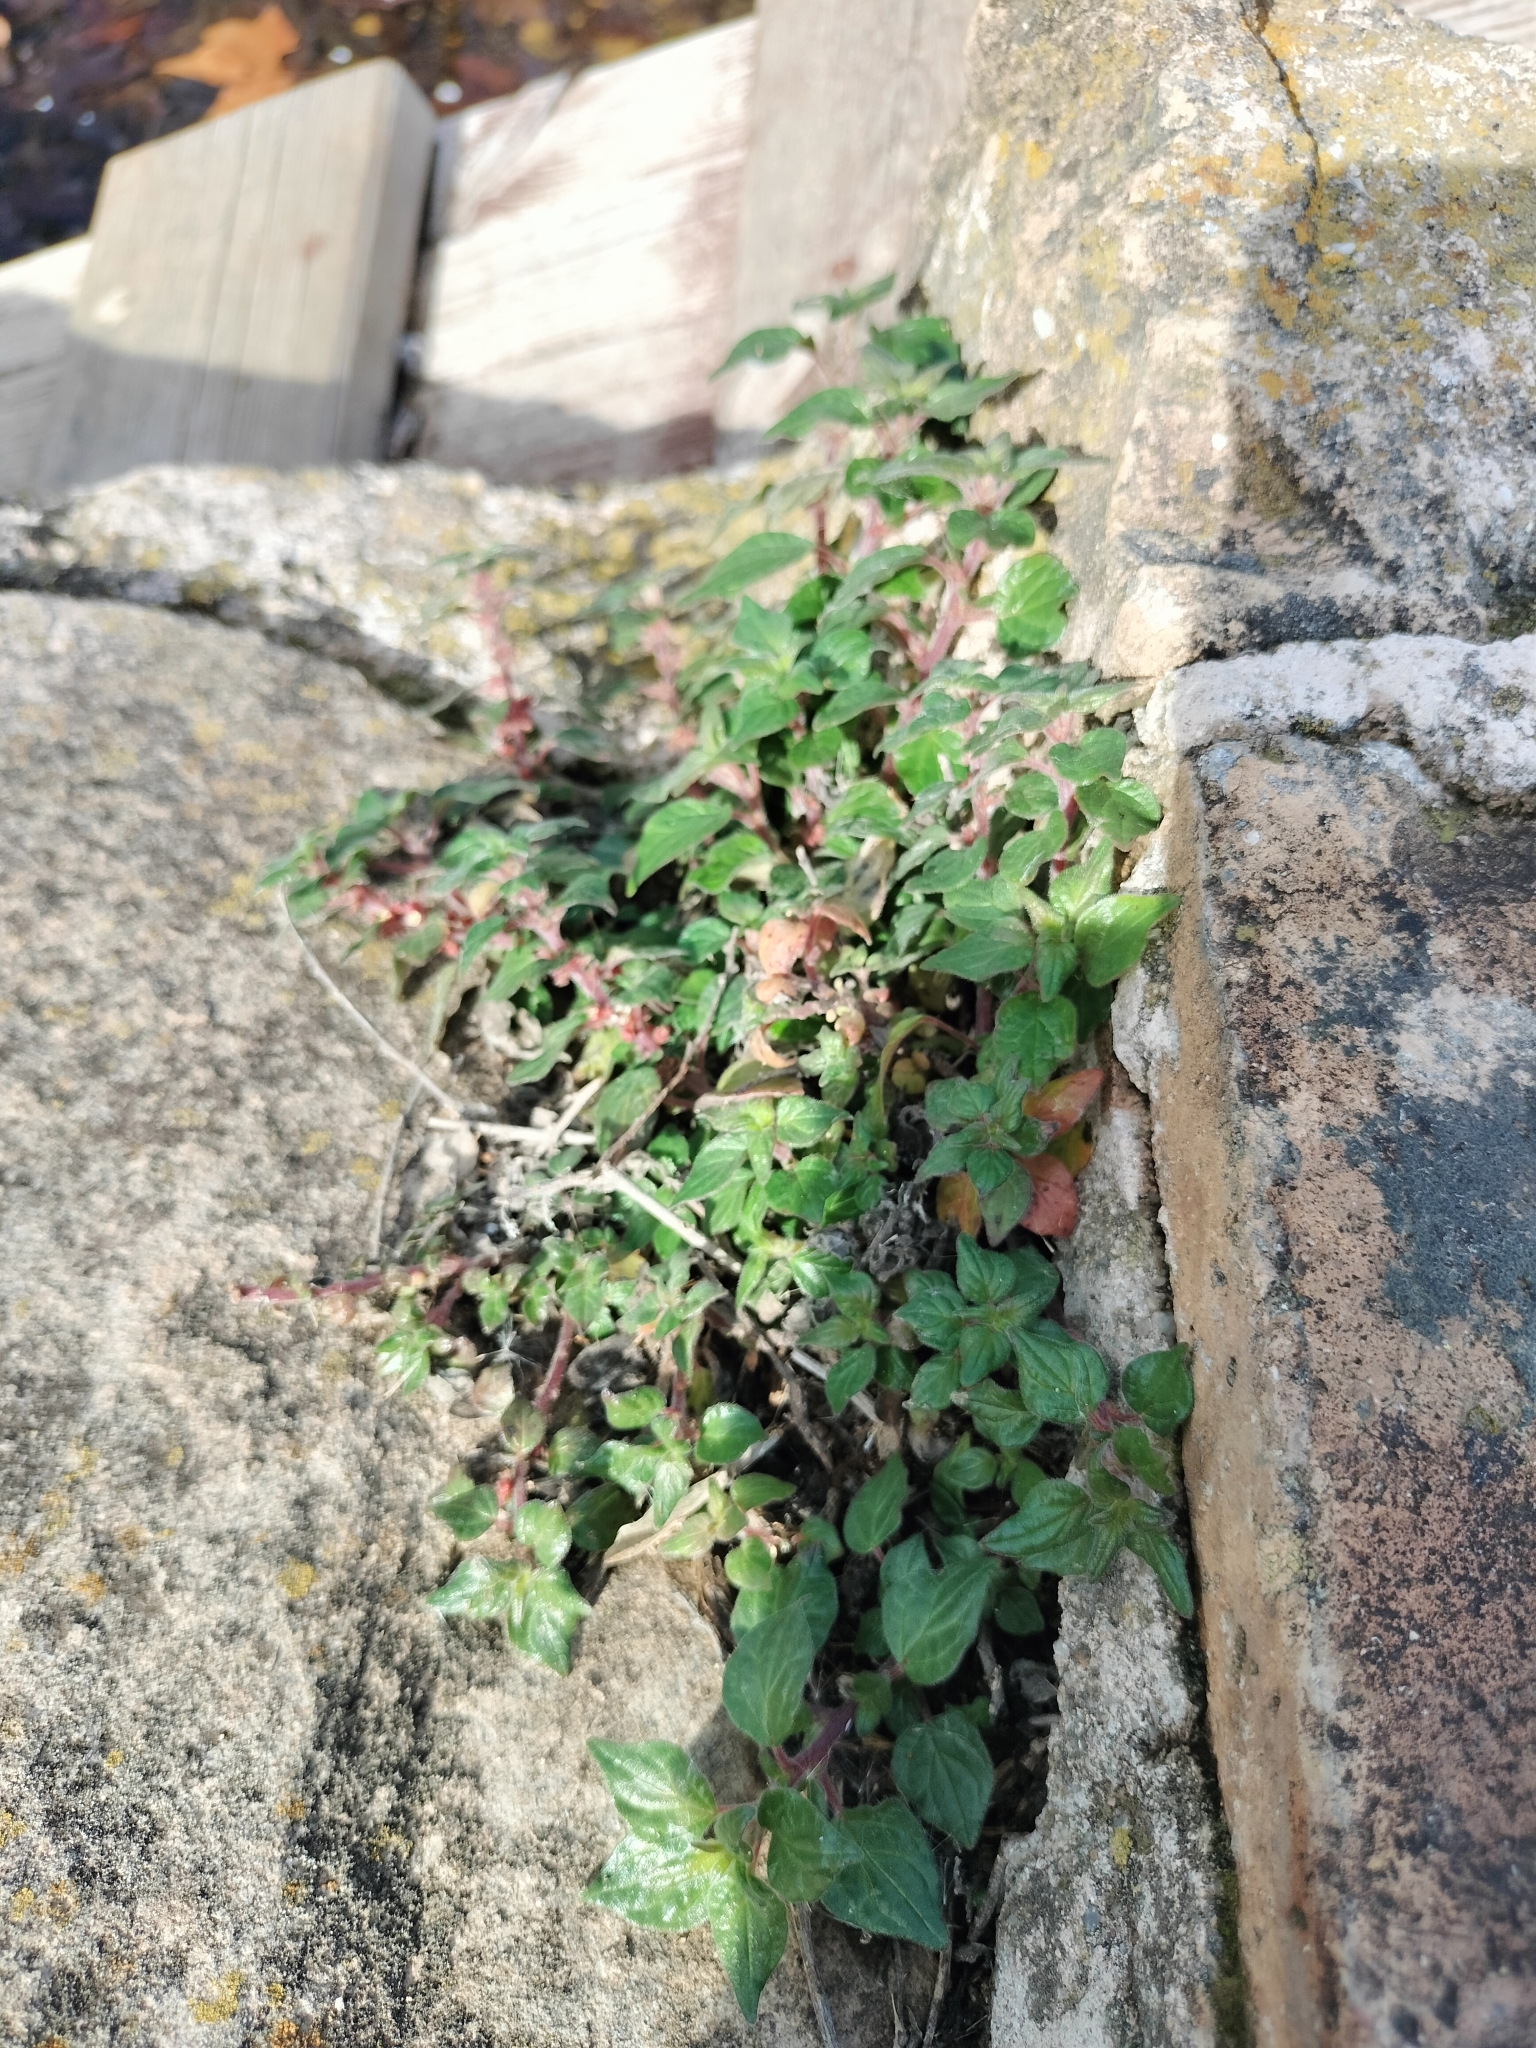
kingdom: Plantae
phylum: Tracheophyta
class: Magnoliopsida
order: Rosales
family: Urticaceae
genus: Parietaria
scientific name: Parietaria judaica
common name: Pellitory-of-the-wall
